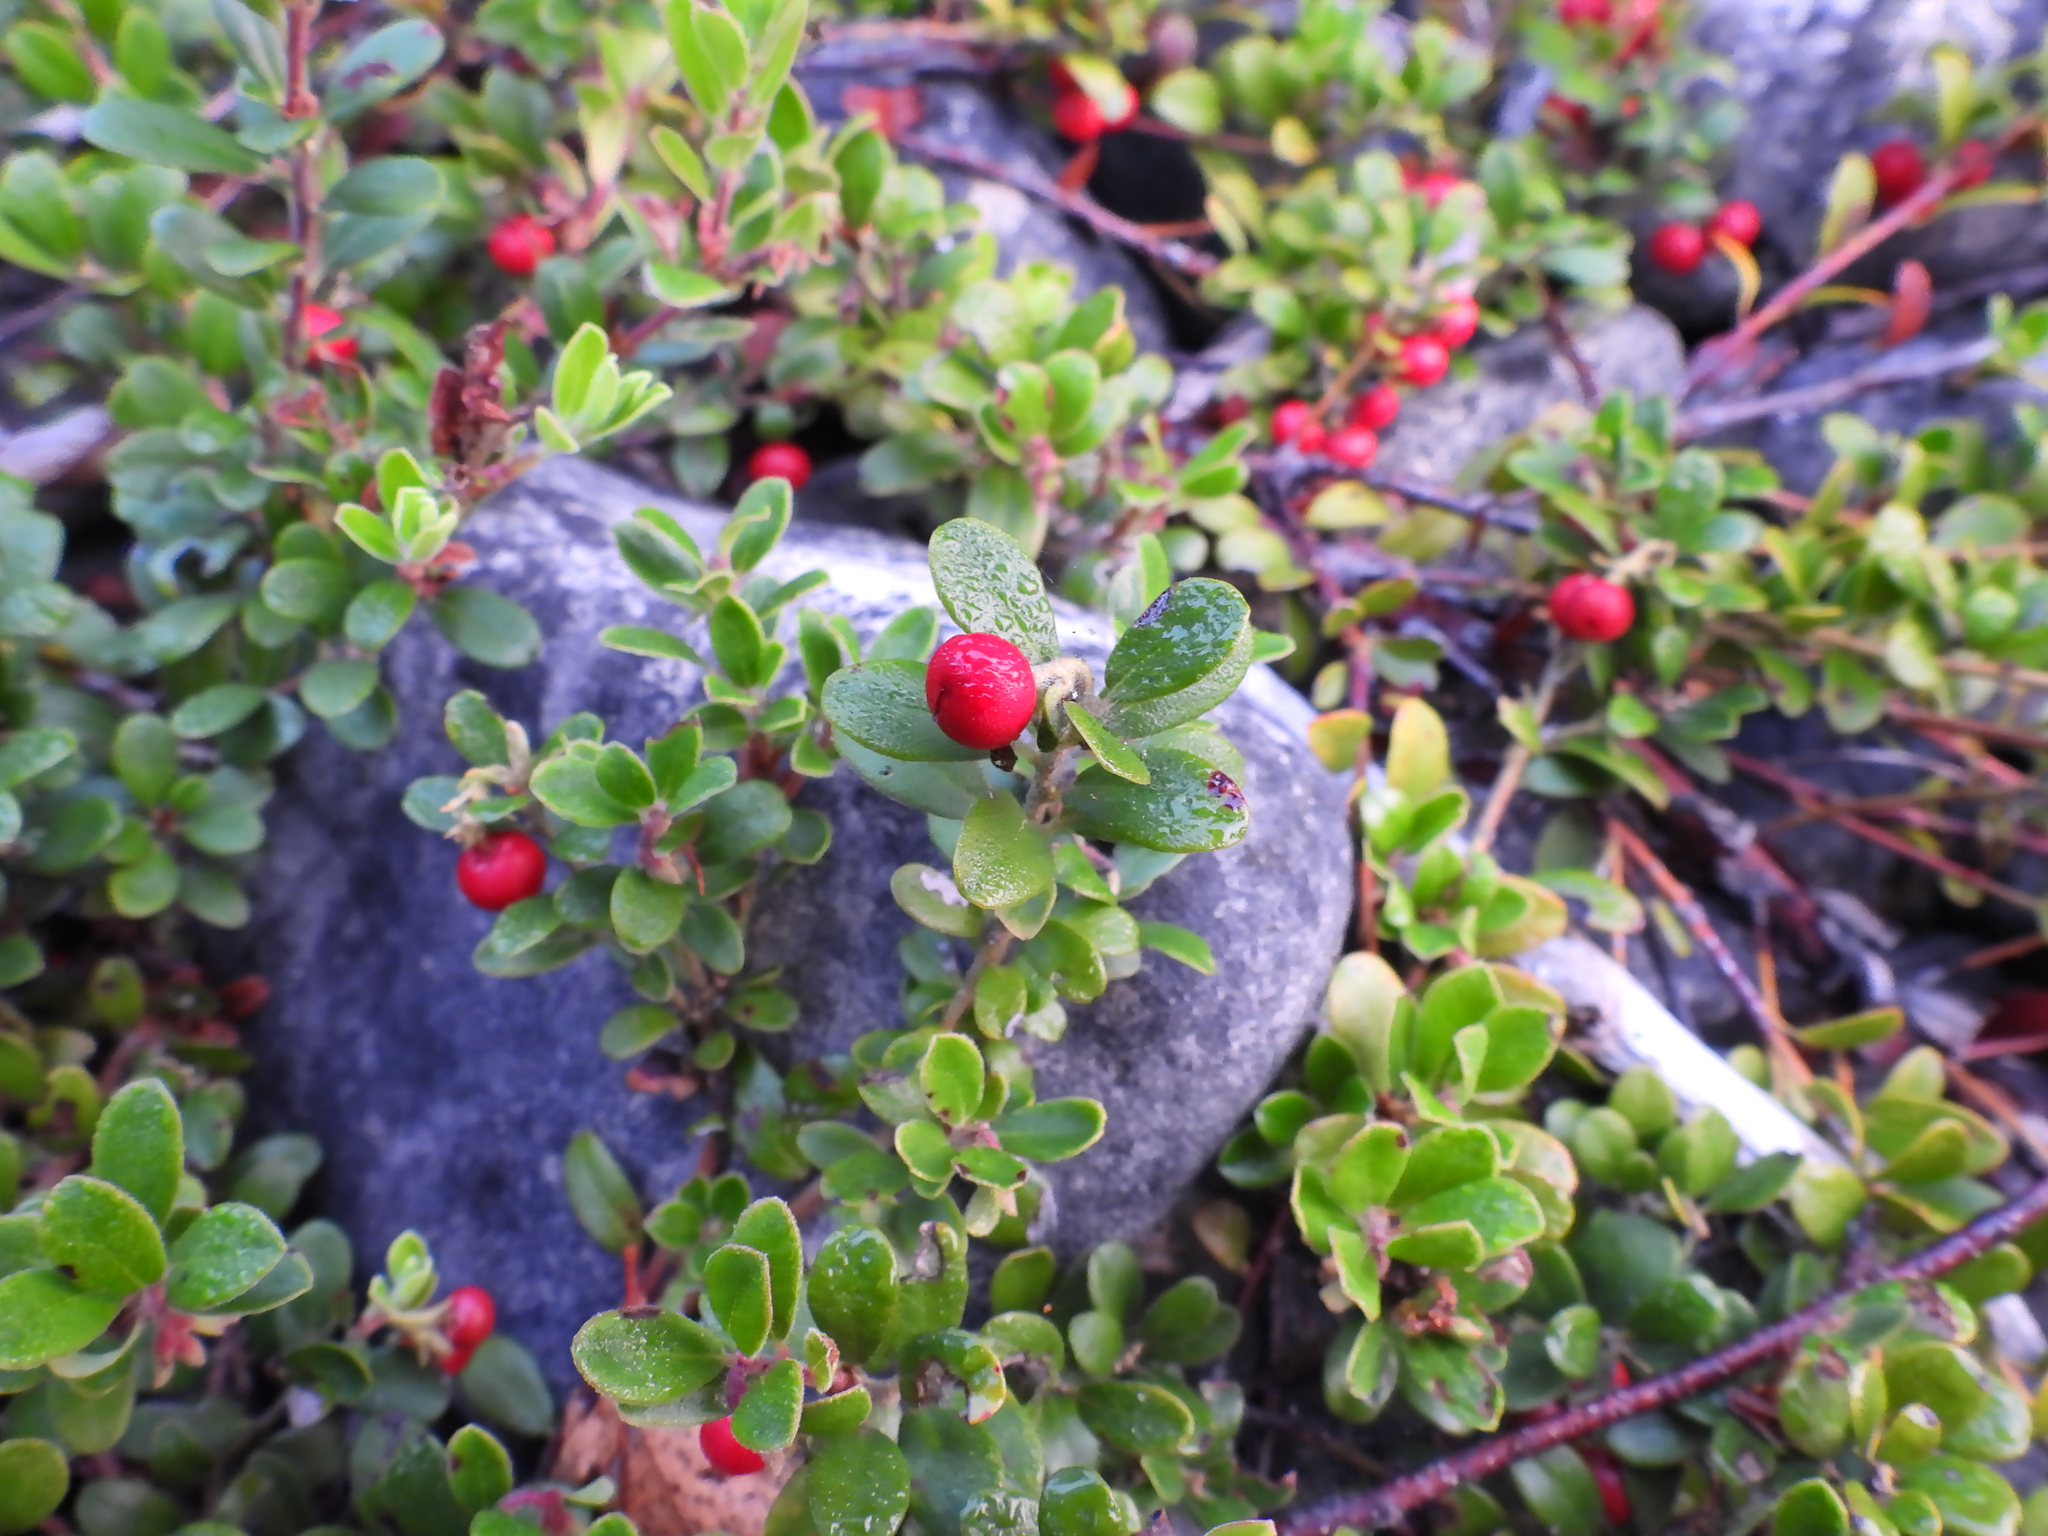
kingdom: Plantae
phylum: Tracheophyta
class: Magnoliopsida
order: Ericales
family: Ericaceae
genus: Arctostaphylos
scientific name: Arctostaphylos uva-ursi
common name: Bearberry
